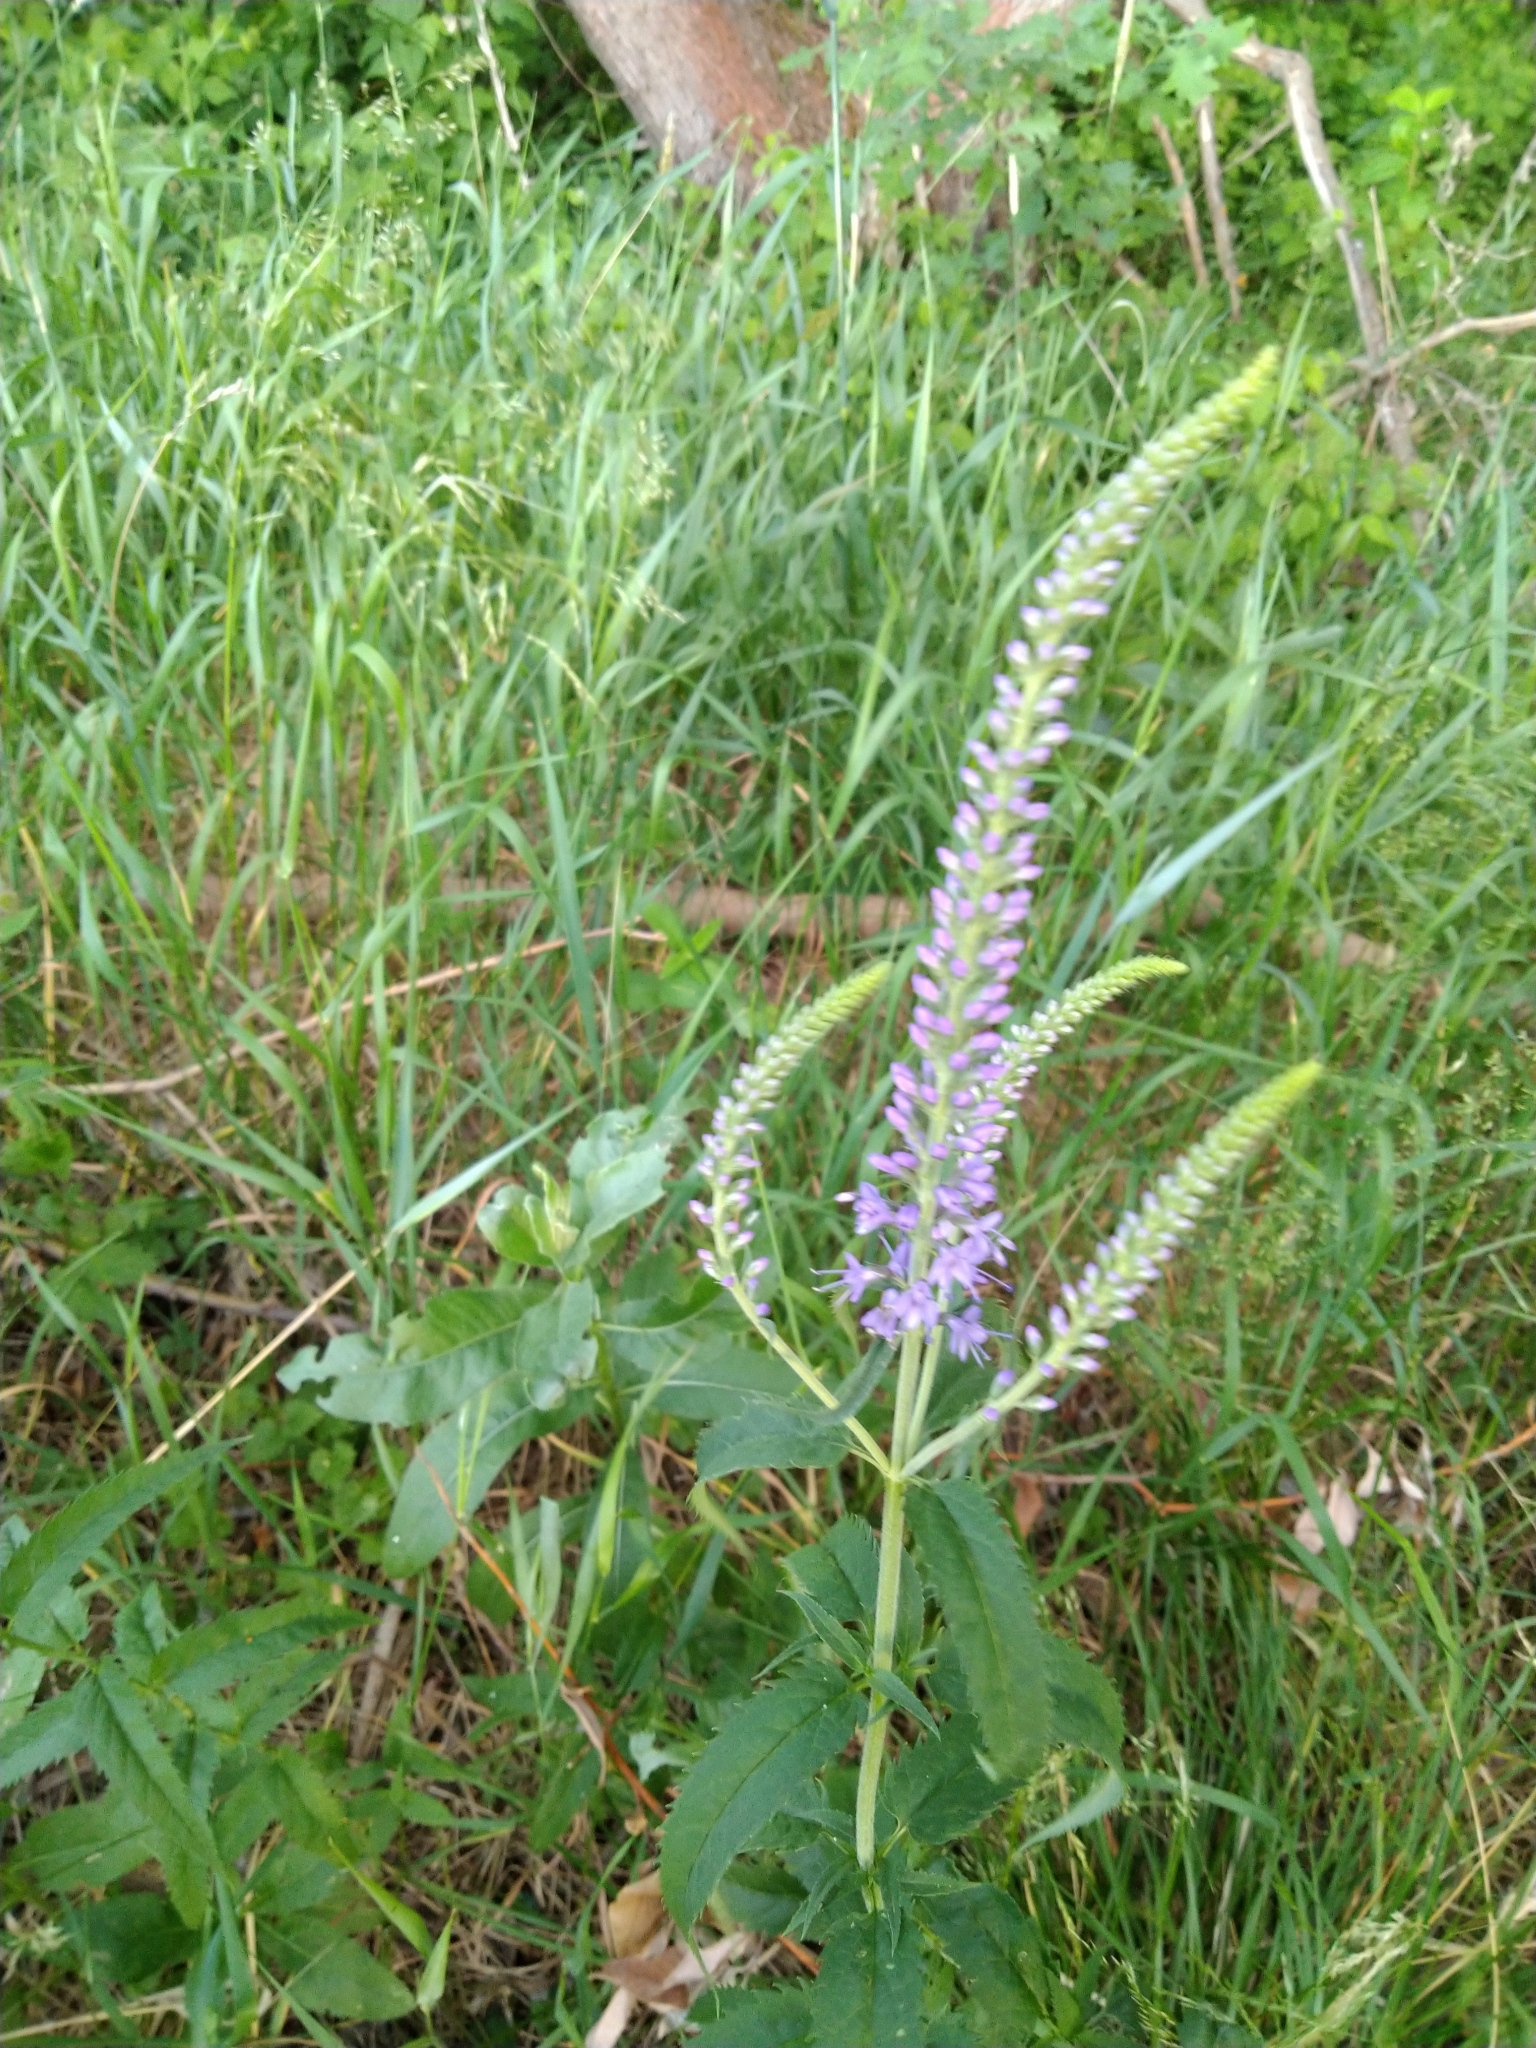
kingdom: Plantae
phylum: Tracheophyta
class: Magnoliopsida
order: Lamiales
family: Plantaginaceae
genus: Veronica
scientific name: Veronica longifolia
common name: Garden speedwell
